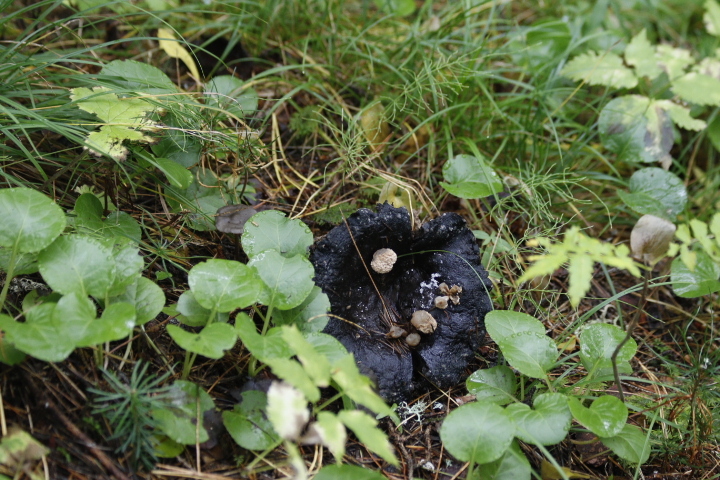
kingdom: Fungi
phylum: Basidiomycota
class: Agaricomycetes
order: Agaricales
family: Lyophyllaceae
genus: Asterophora
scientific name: Asterophora lycoperdoides
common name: Pick-a-back toadstool
